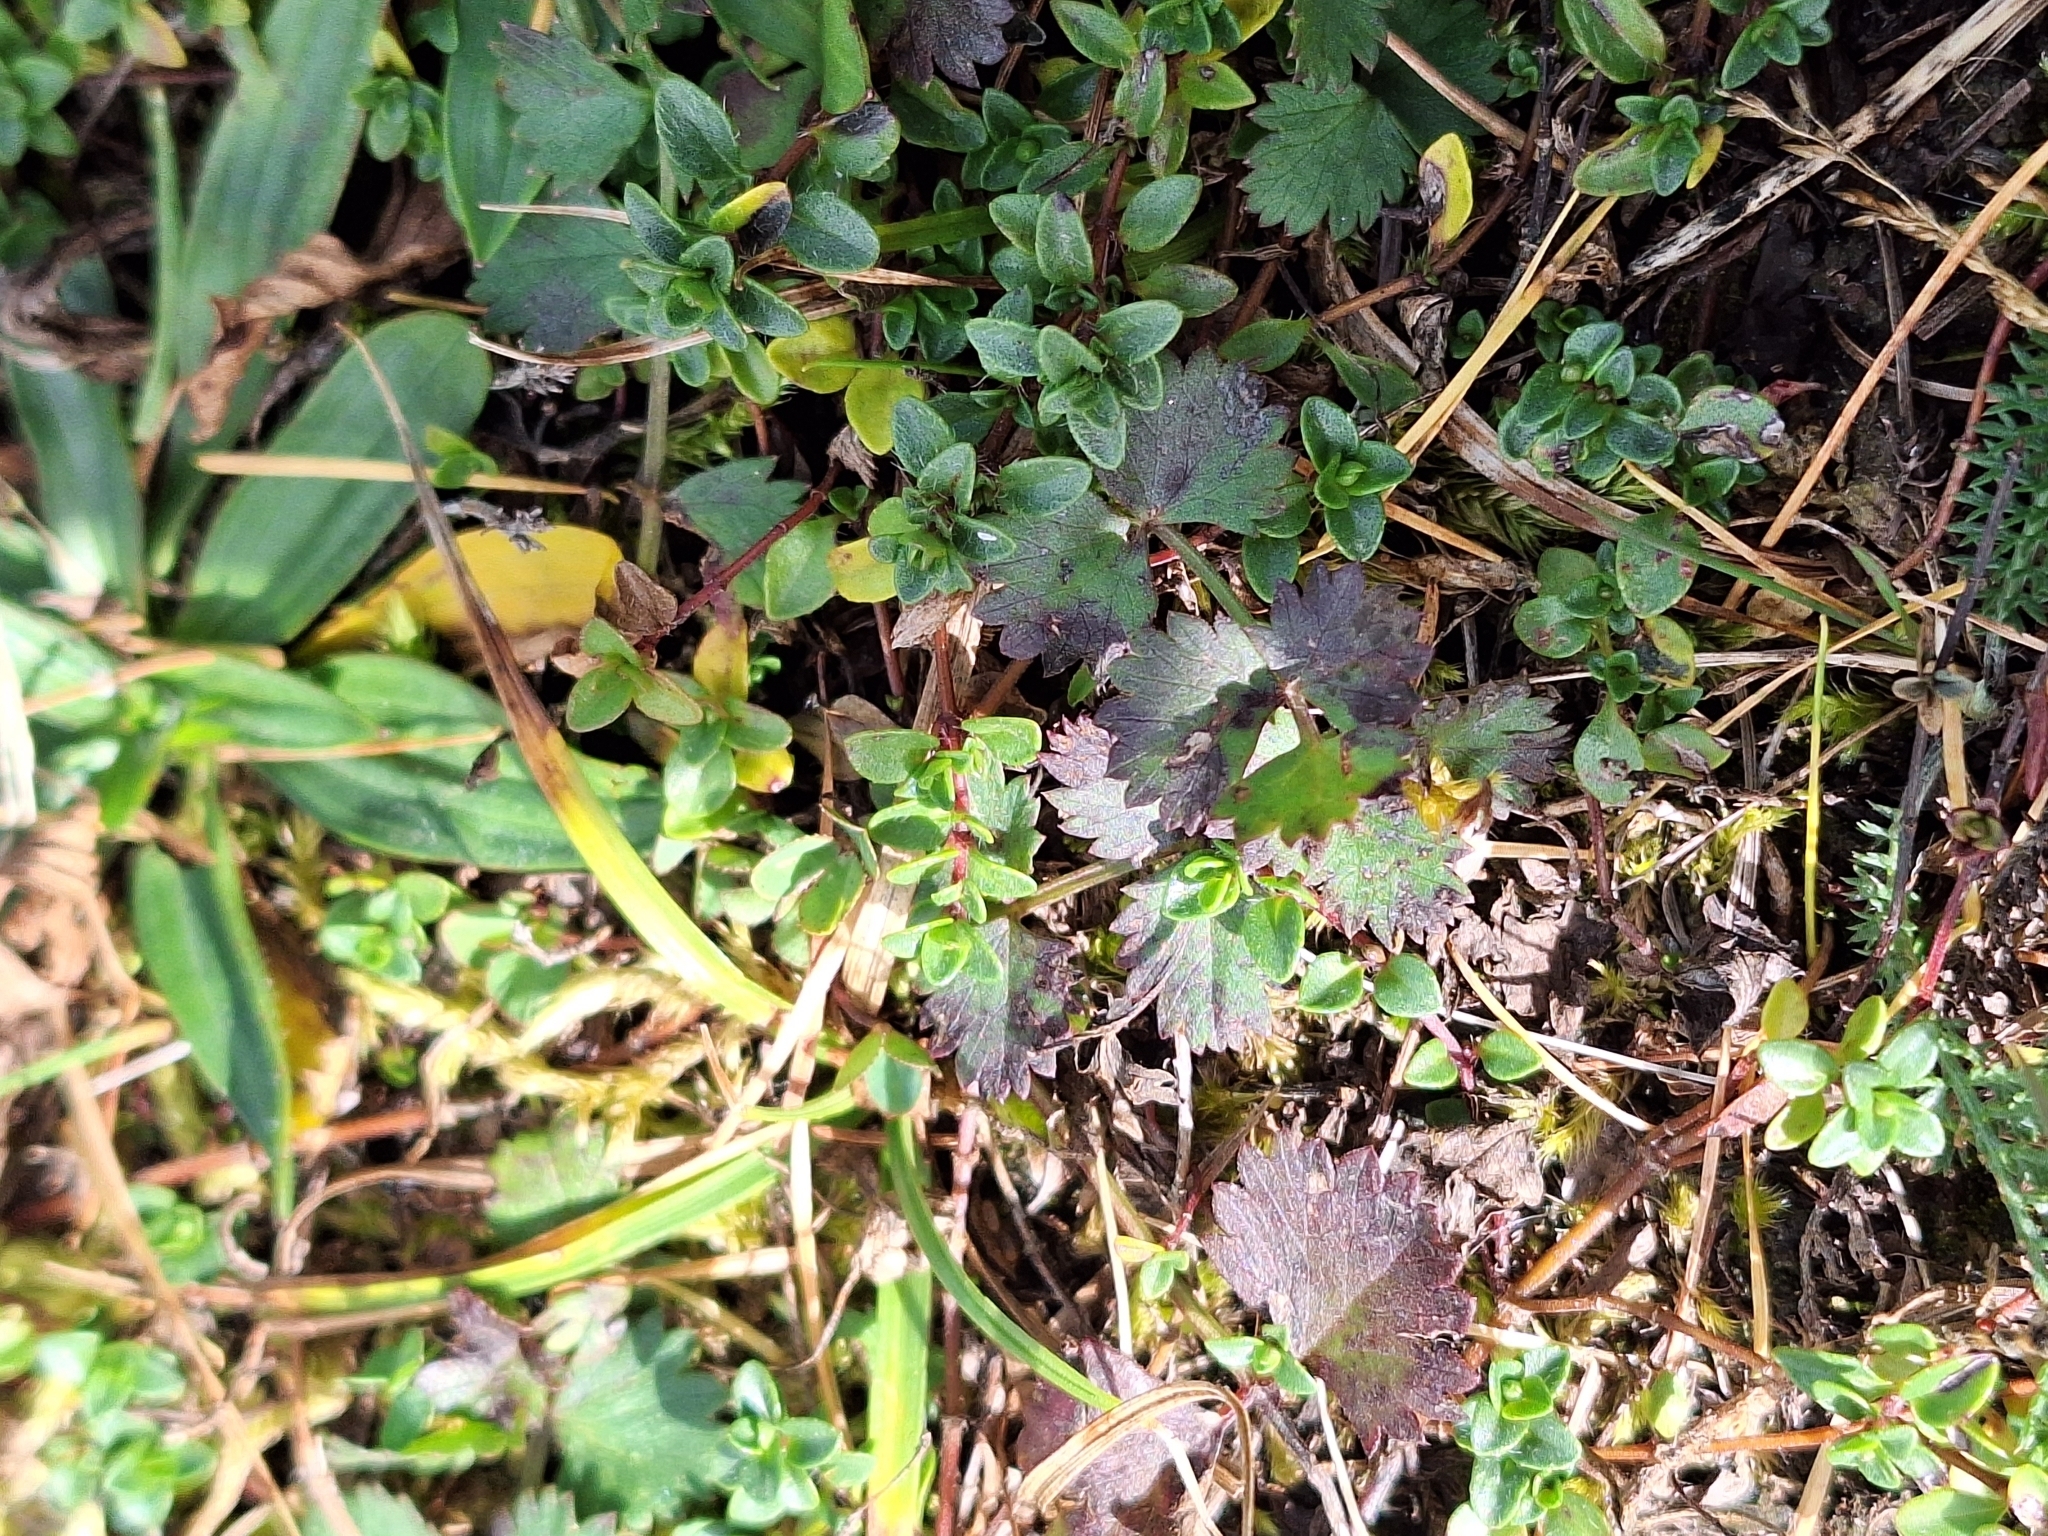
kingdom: Plantae
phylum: Tracheophyta
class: Magnoliopsida
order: Rosales
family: Rosaceae
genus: Poterium
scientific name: Poterium sanguisorba
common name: Salad burnet
